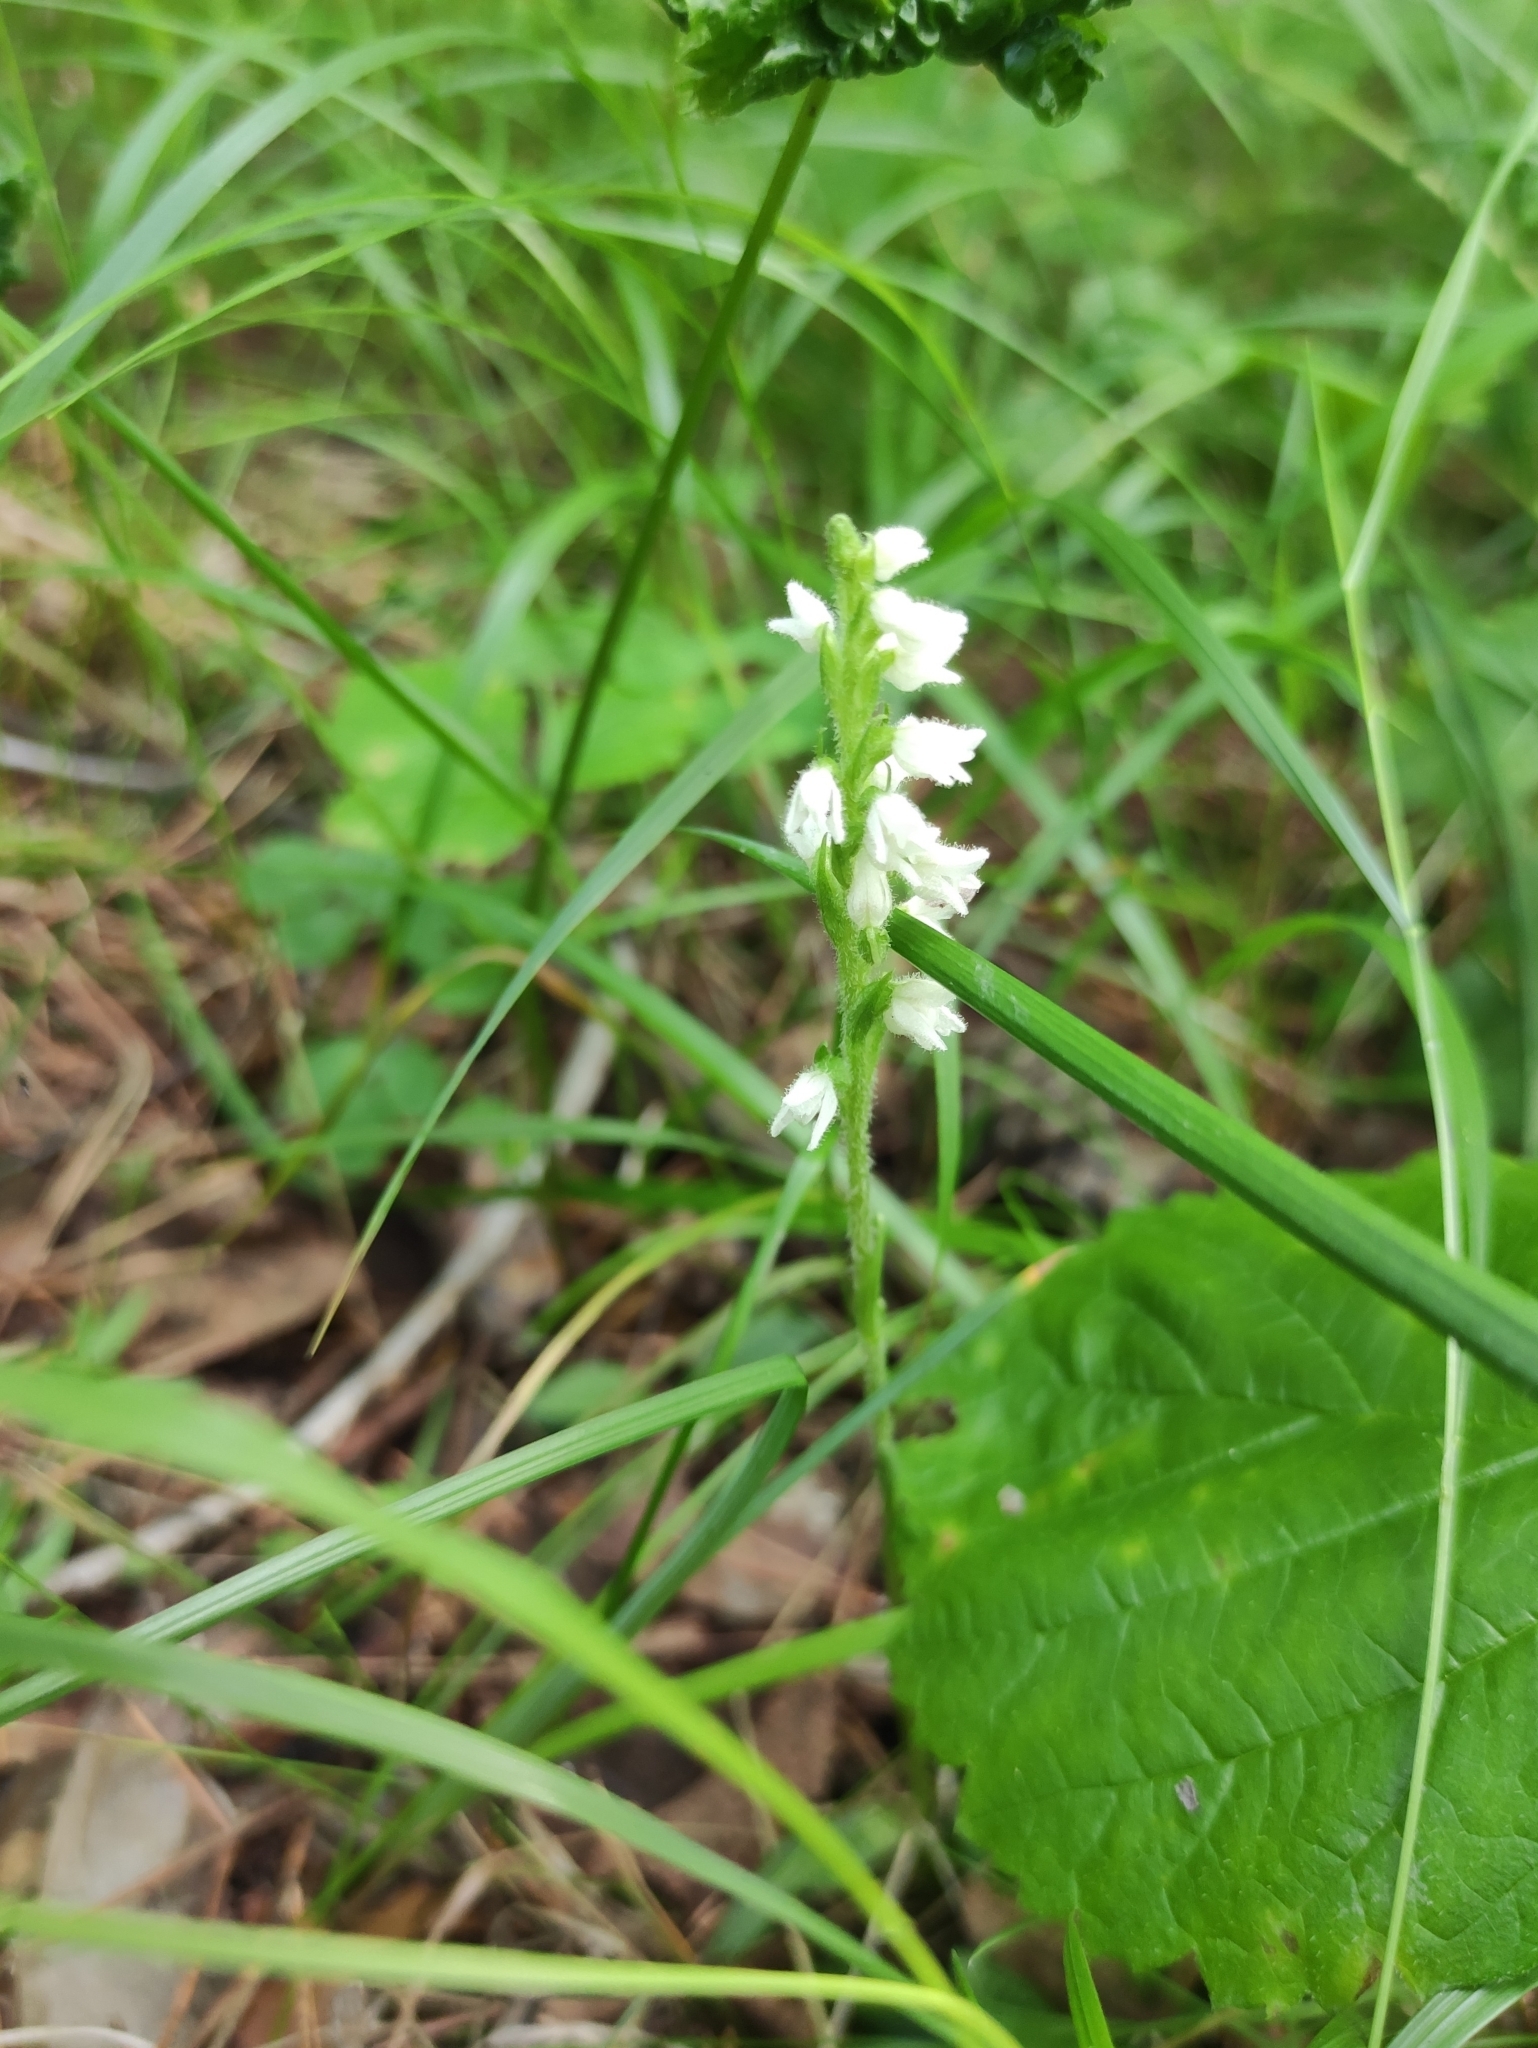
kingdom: Plantae
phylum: Tracheophyta
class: Liliopsida
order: Asparagales
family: Orchidaceae
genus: Goodyera
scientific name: Goodyera repens
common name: Creeping lady's-tresses
